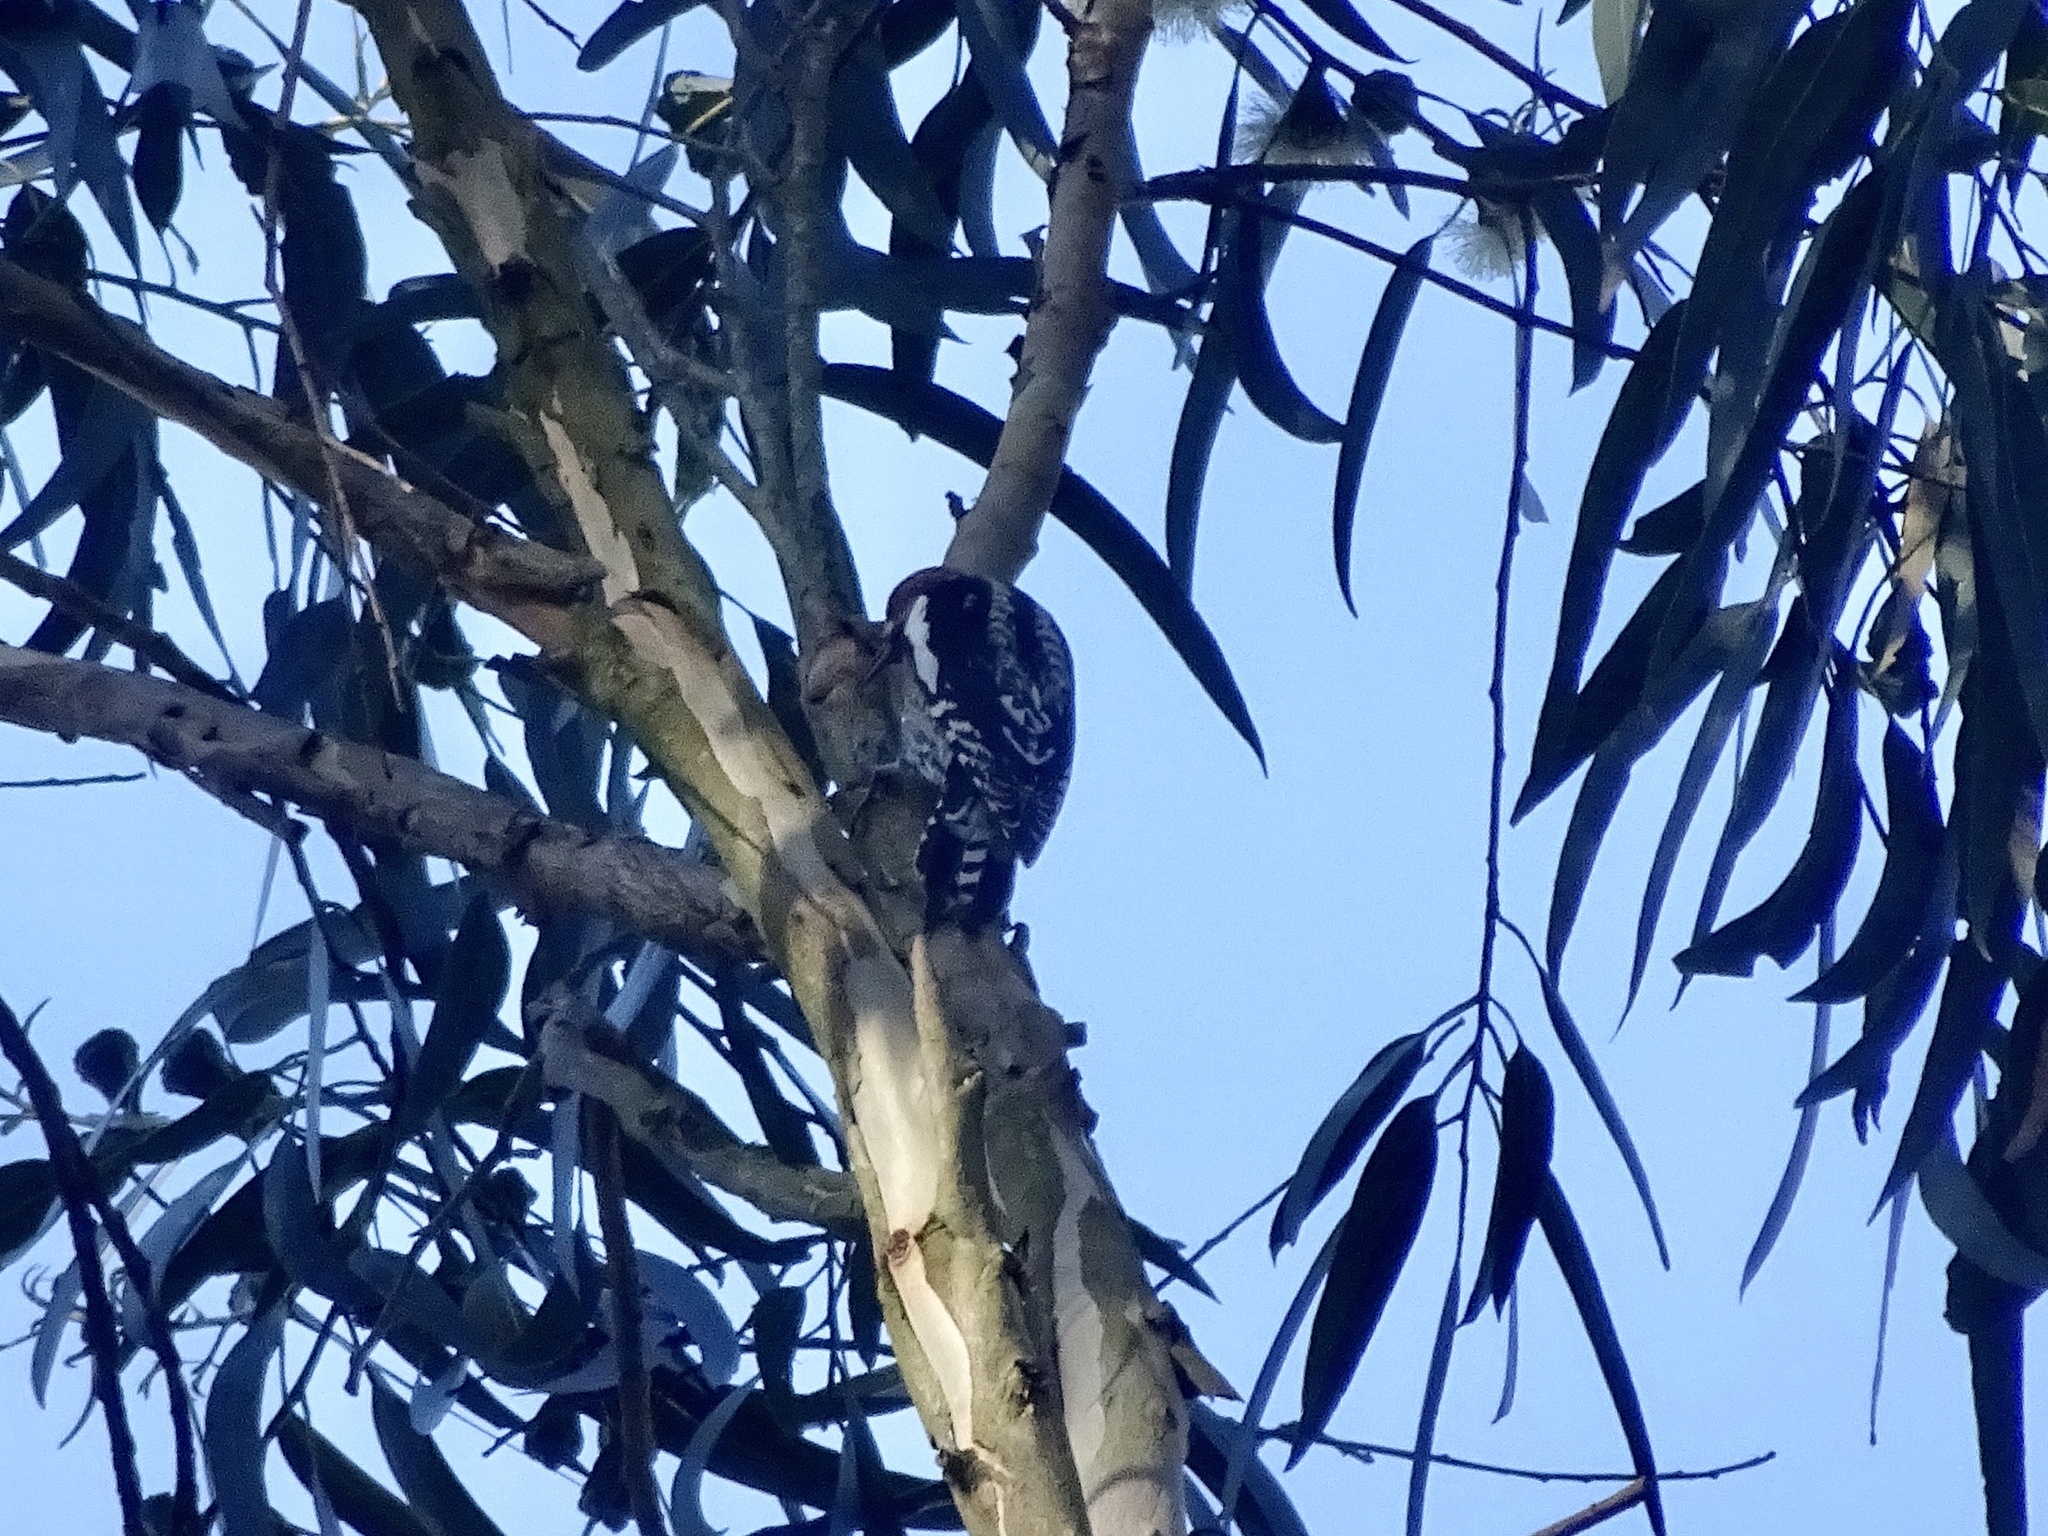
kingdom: Animalia
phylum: Chordata
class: Aves
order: Piciformes
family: Picidae
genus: Sphyrapicus
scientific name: Sphyrapicus ruber
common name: Red-breasted sapsucker
